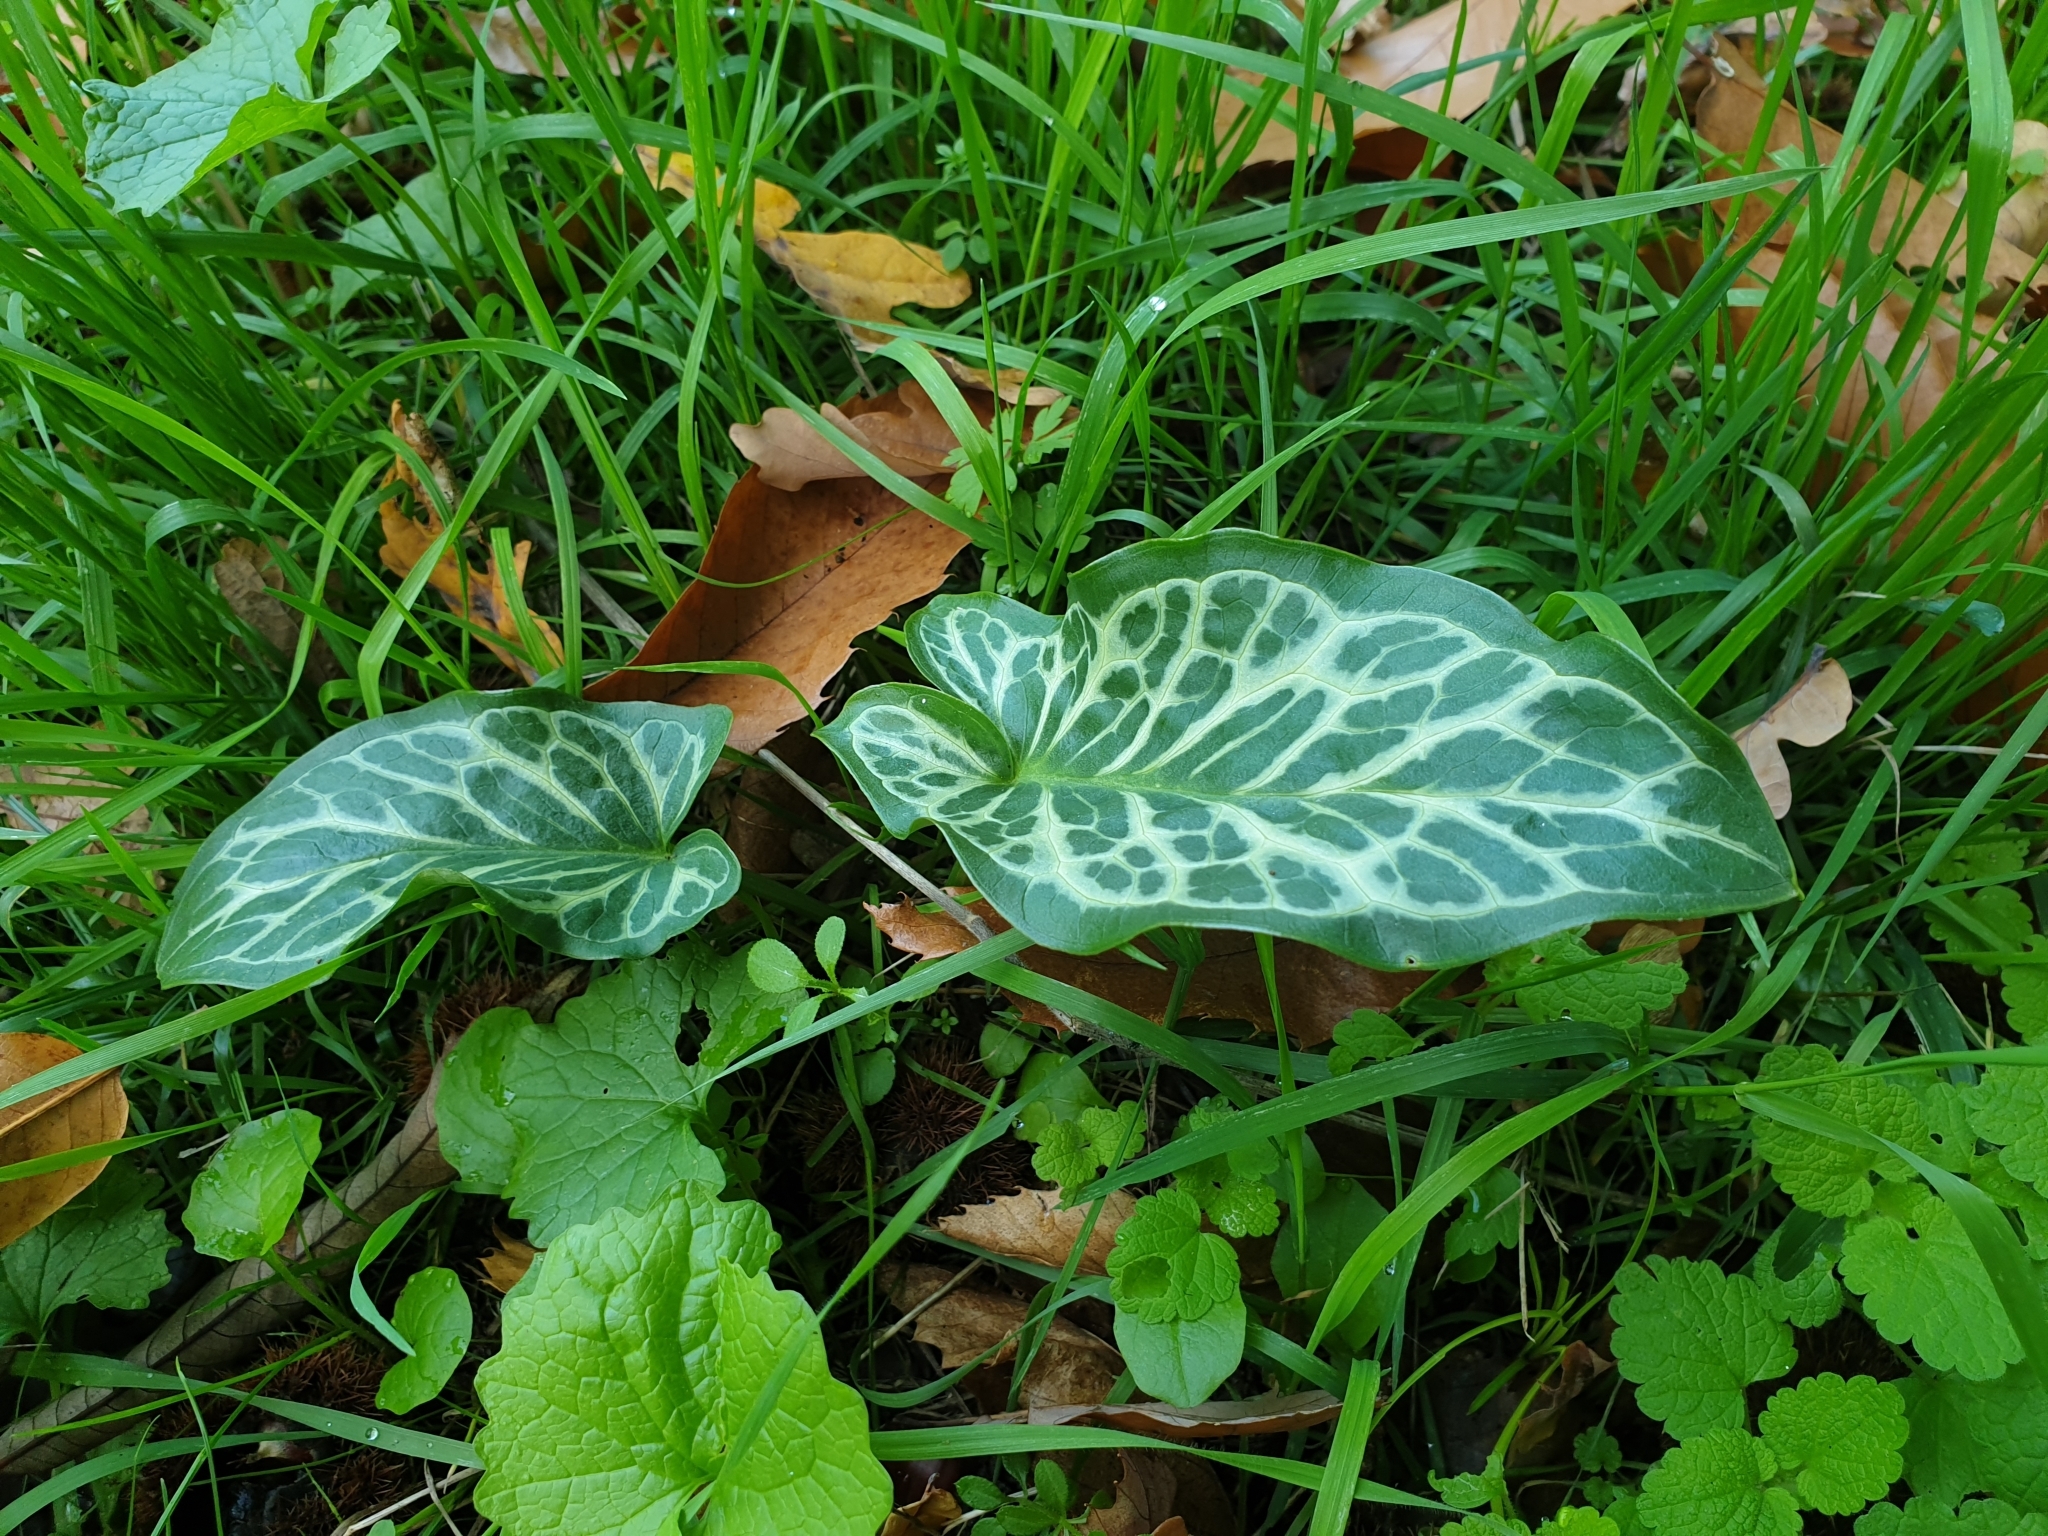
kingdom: Plantae
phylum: Tracheophyta
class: Liliopsida
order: Alismatales
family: Araceae
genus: Arum
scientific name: Arum italicum
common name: Italian lords-and-ladies
